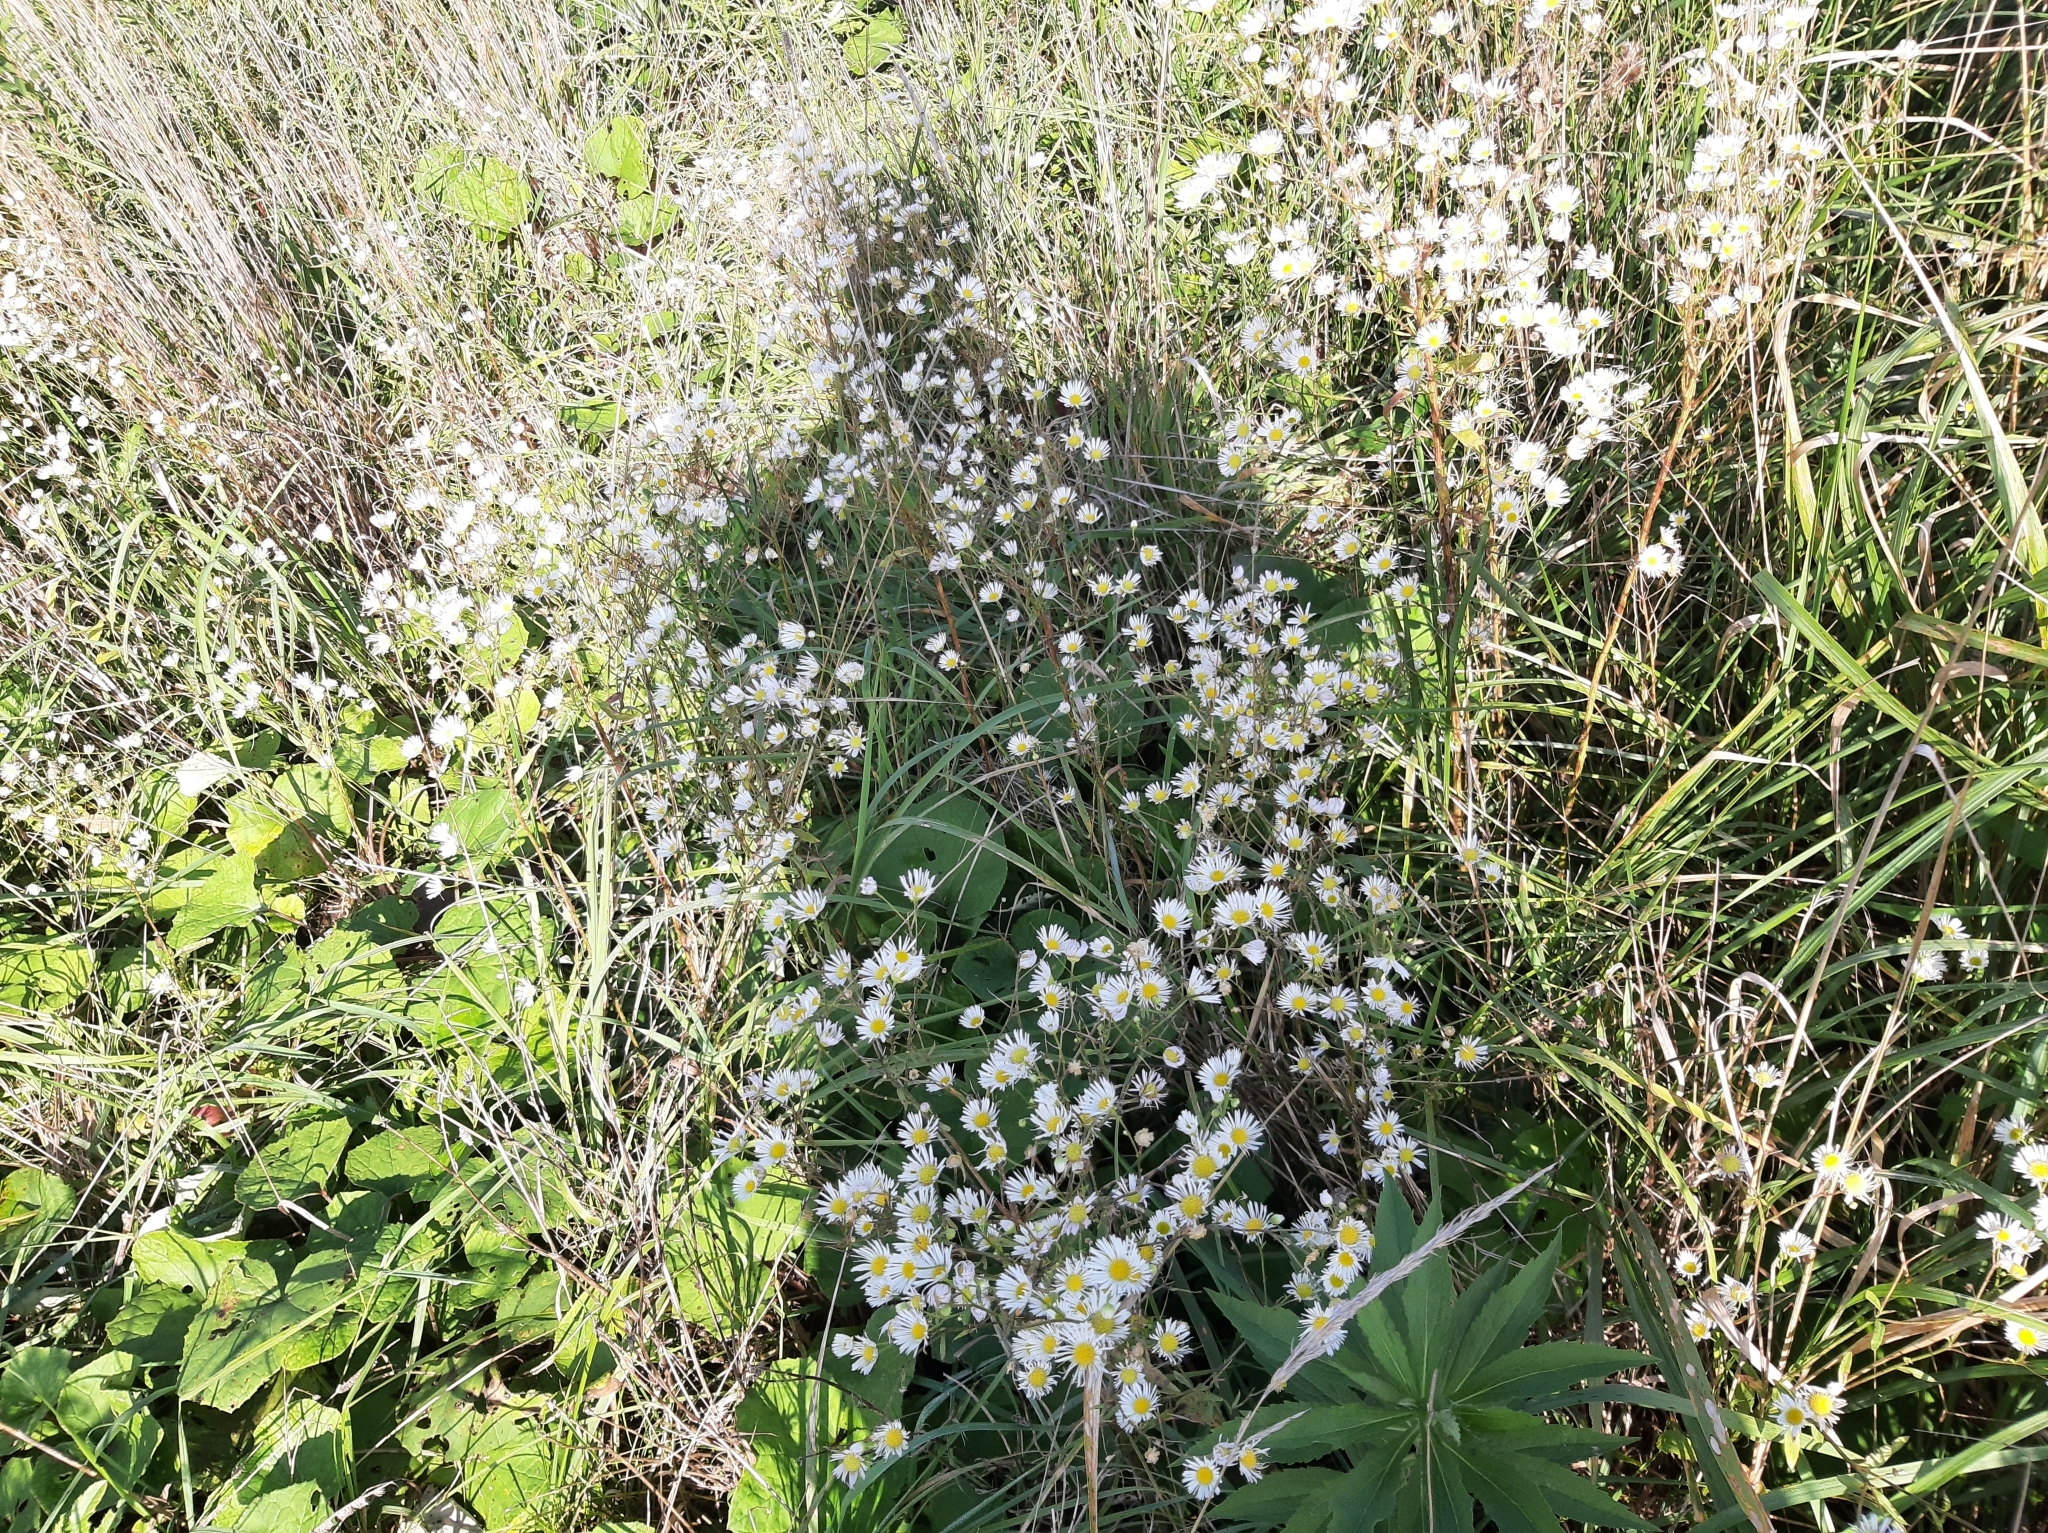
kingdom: Plantae
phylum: Tracheophyta
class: Magnoliopsida
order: Asterales
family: Asteraceae
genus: Erigeron
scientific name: Erigeron annuus
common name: Tall fleabane
